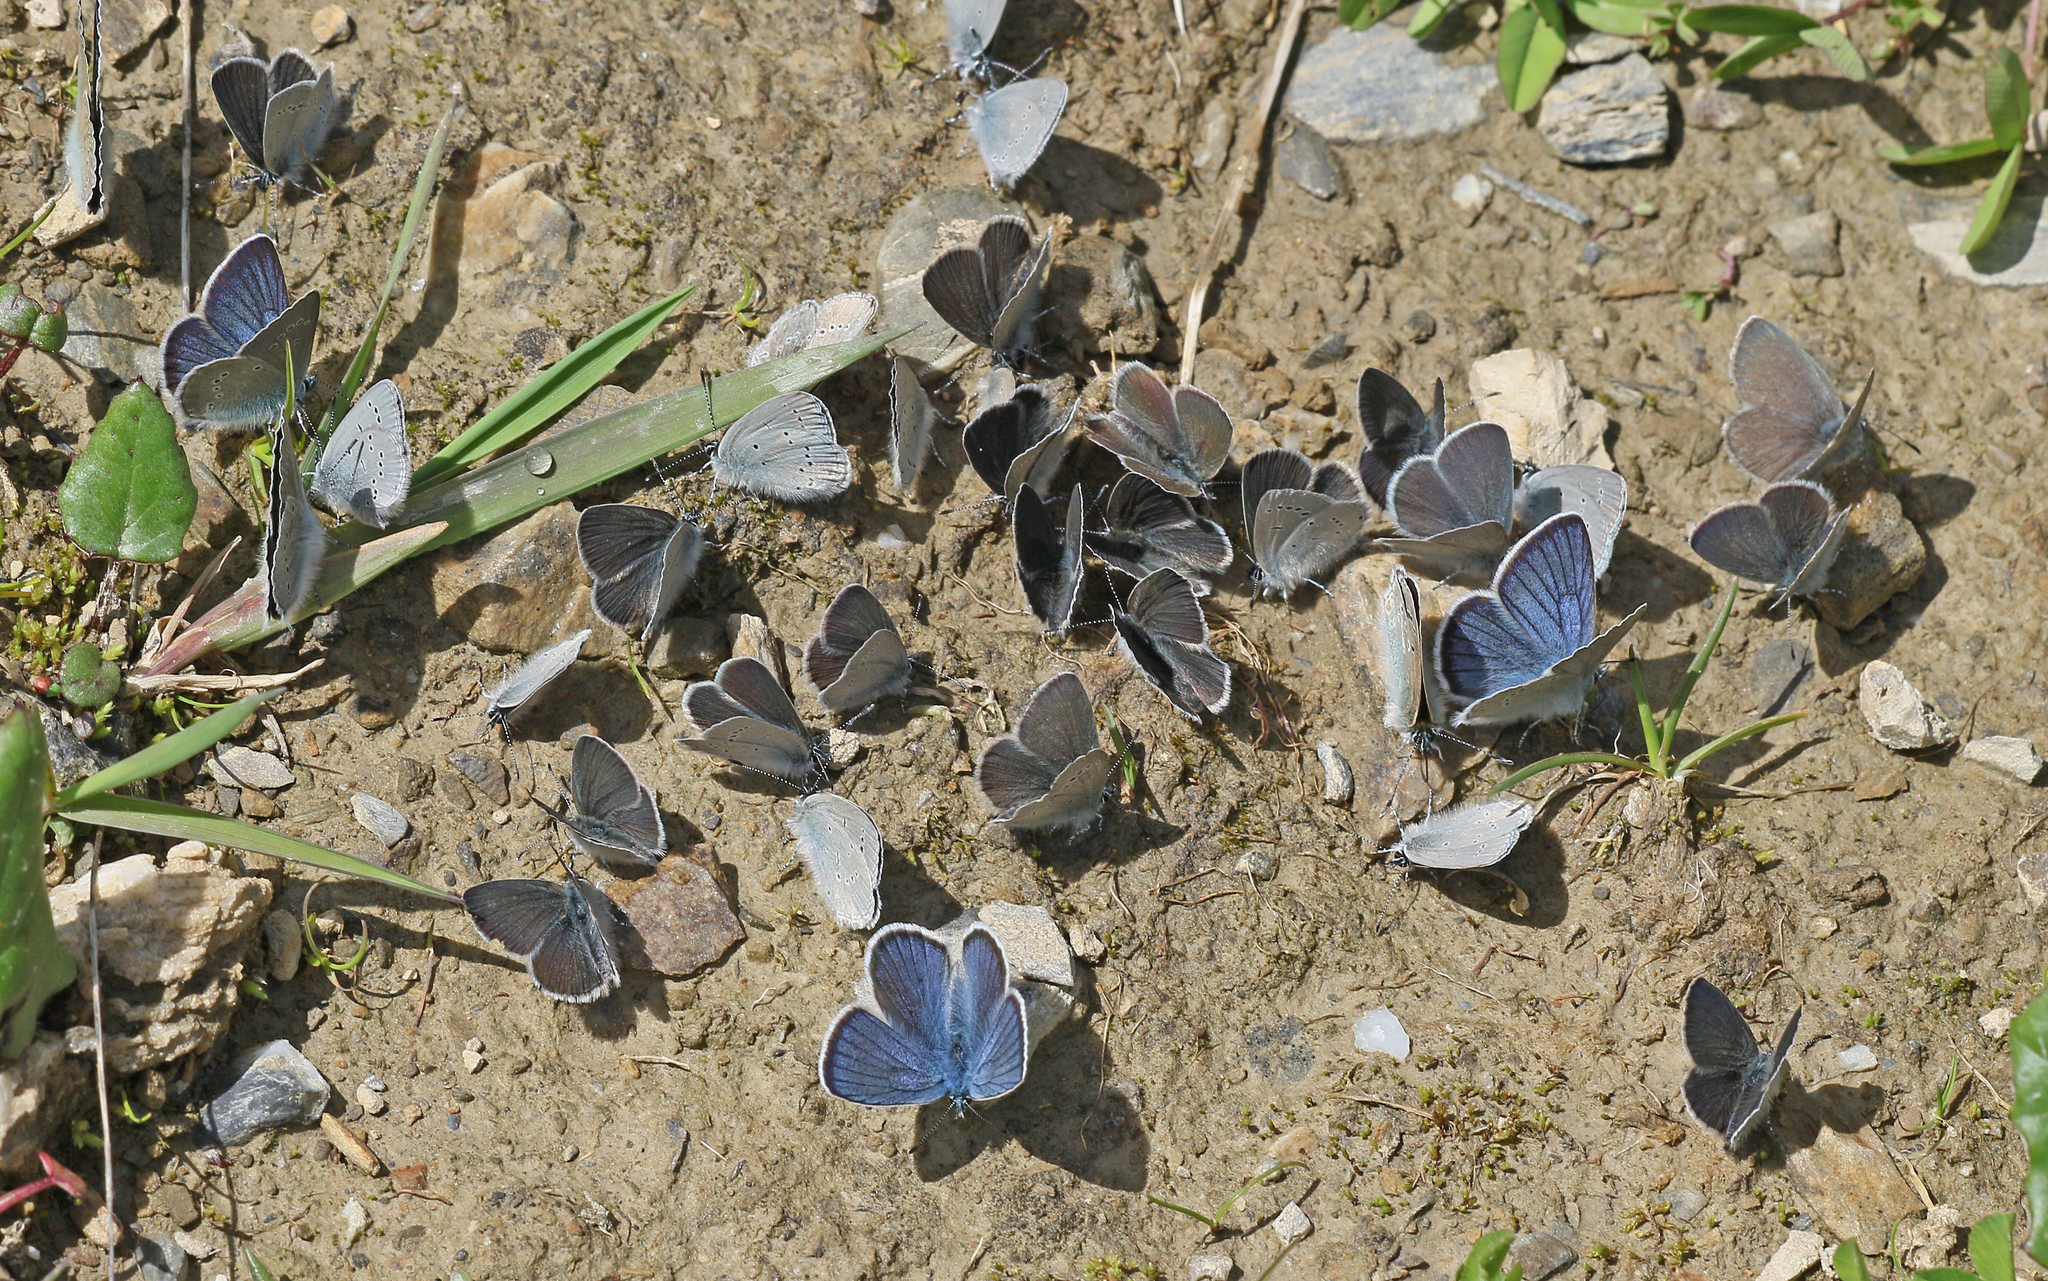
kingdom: Animalia
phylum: Arthropoda
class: Insecta
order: Lepidoptera
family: Lycaenidae
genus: Cupido
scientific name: Cupido minimus
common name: Small blue
